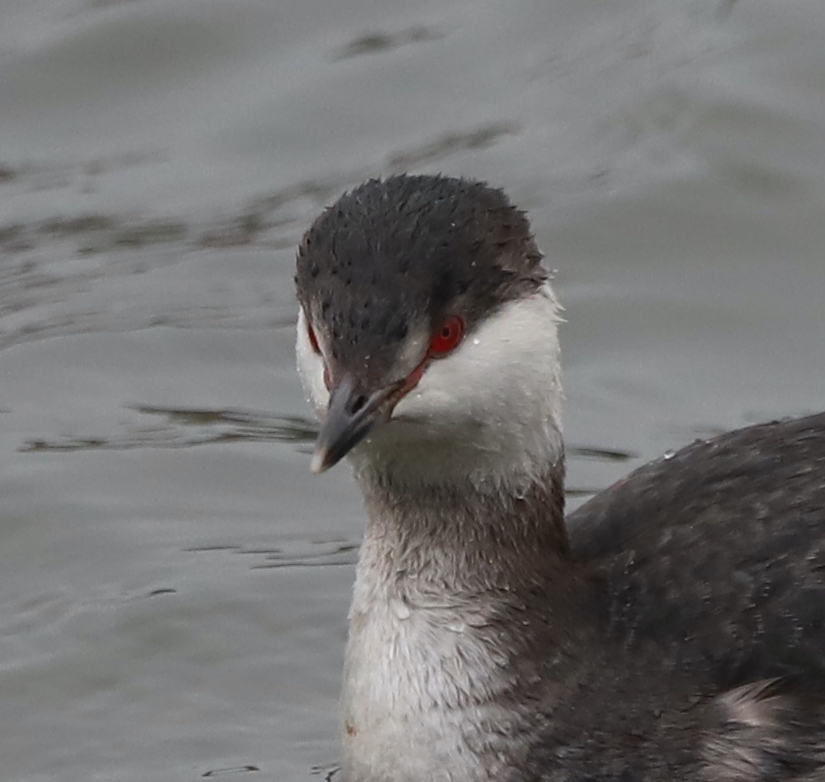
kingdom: Animalia
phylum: Chordata
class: Aves
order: Podicipediformes
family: Podicipedidae
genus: Podiceps
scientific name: Podiceps auritus
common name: Horned grebe
